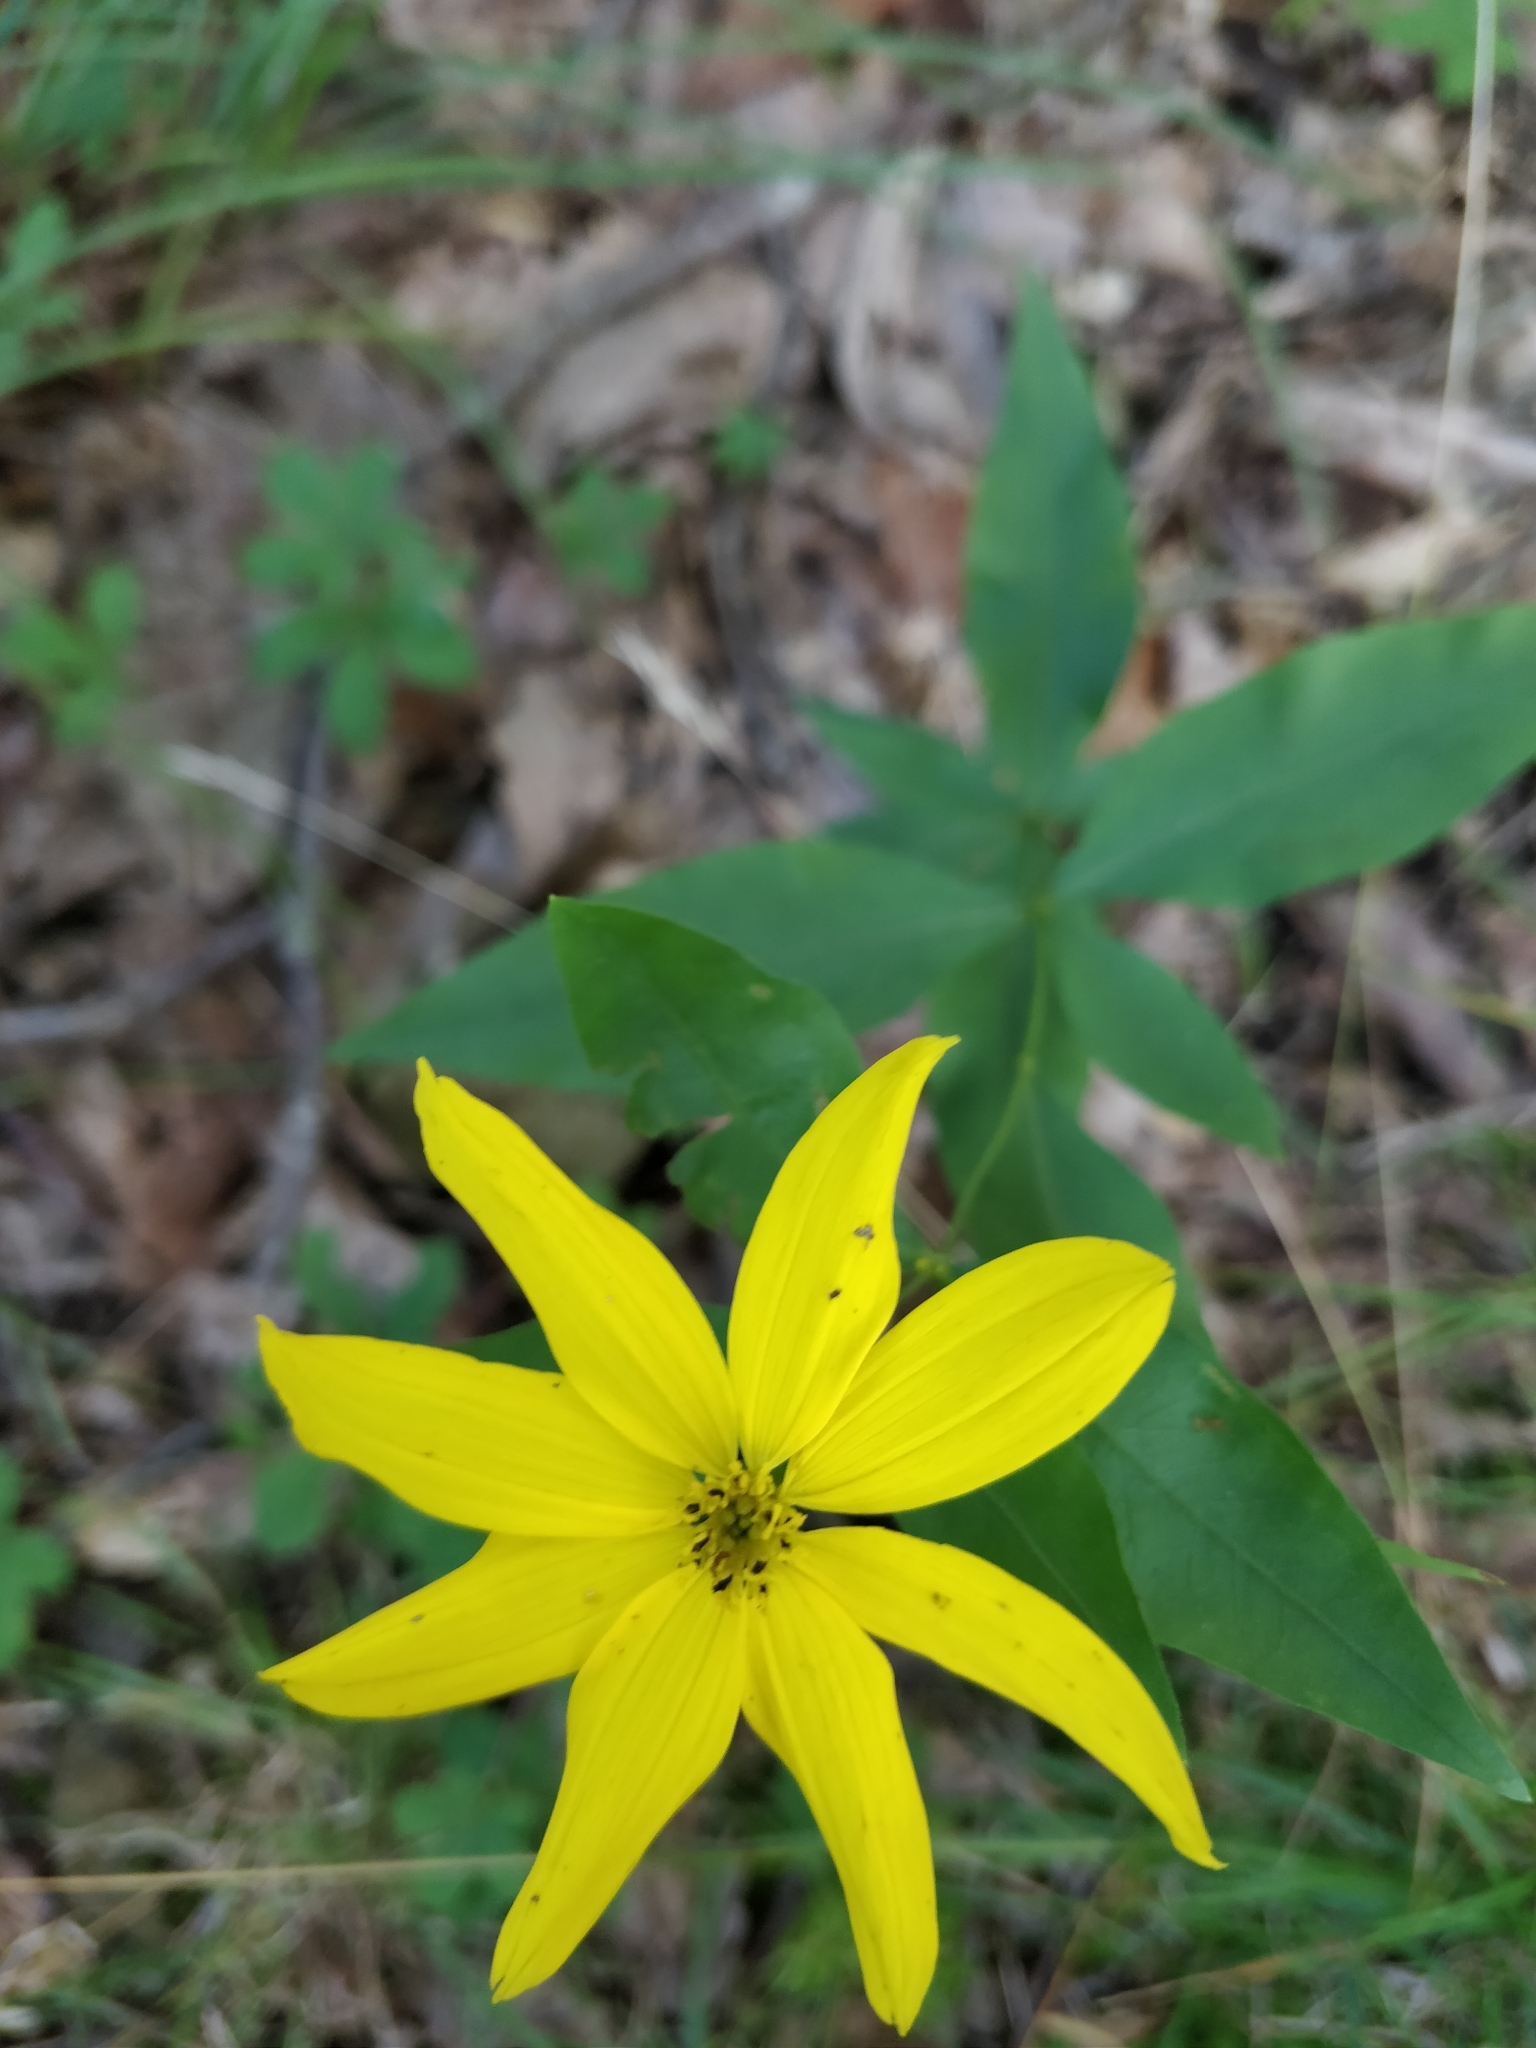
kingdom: Plantae
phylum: Tracheophyta
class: Magnoliopsida
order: Asterales
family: Asteraceae
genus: Coreopsis
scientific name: Coreopsis major
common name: Forest tickseed
